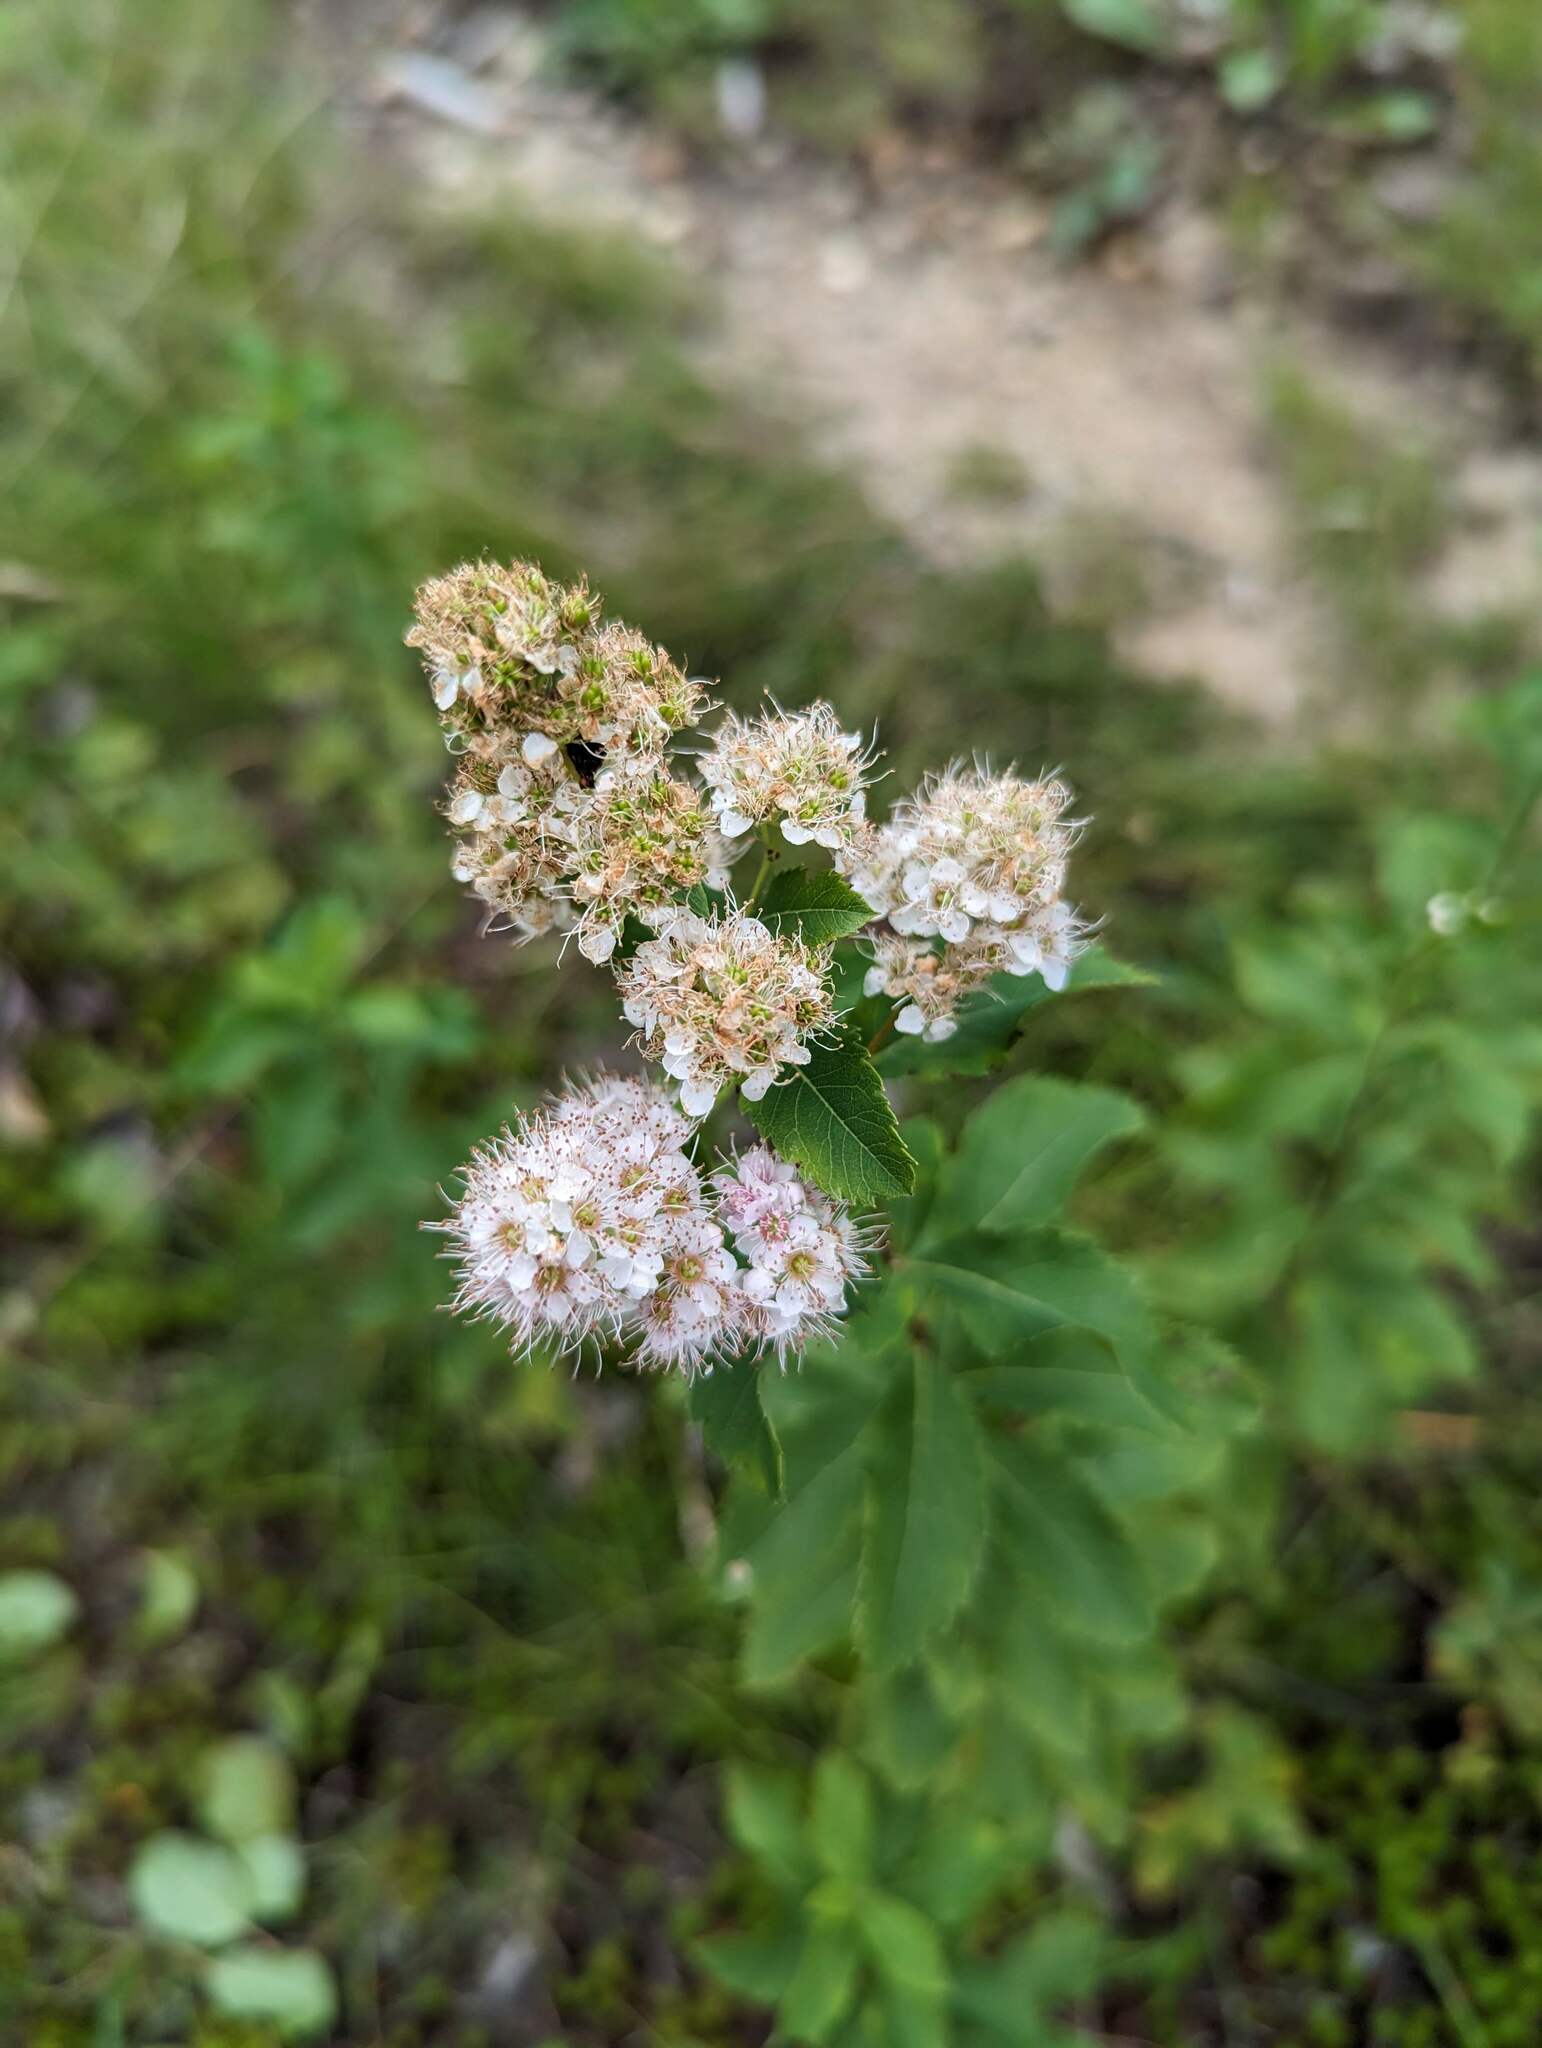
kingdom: Plantae
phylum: Tracheophyta
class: Magnoliopsida
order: Rosales
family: Rosaceae
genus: Spiraea
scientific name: Spiraea alba
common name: Pale bridewort
